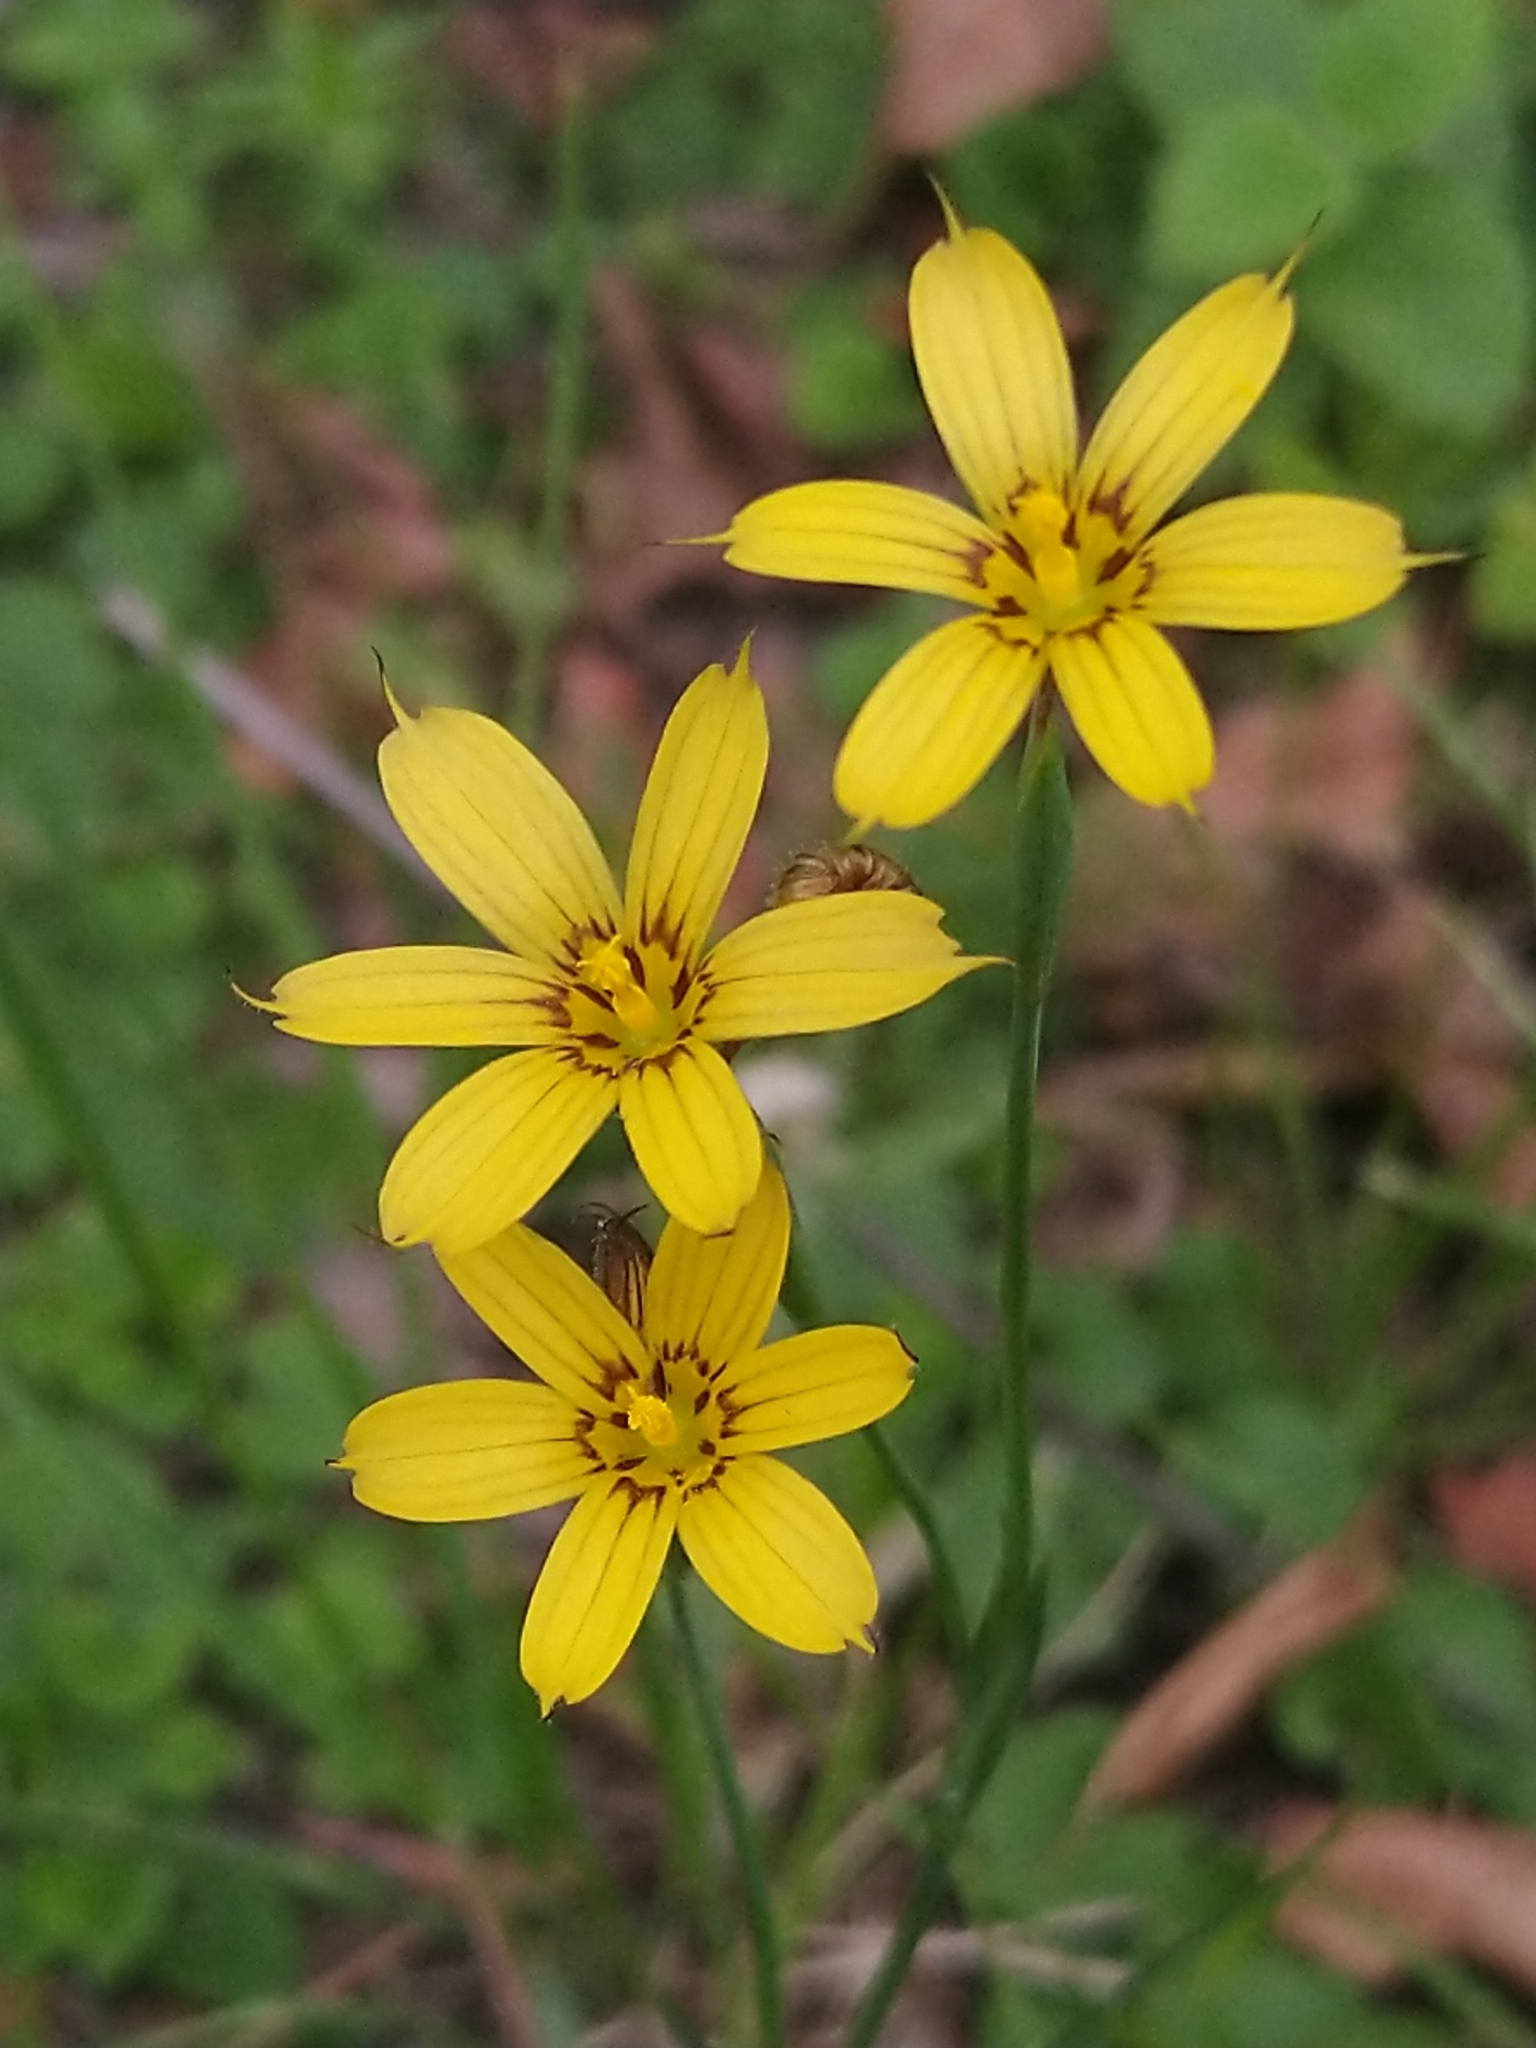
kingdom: Plantae
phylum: Tracheophyta
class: Liliopsida
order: Asparagales
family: Iridaceae
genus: Sisyrinchium
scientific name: Sisyrinchium pachyrhizum
